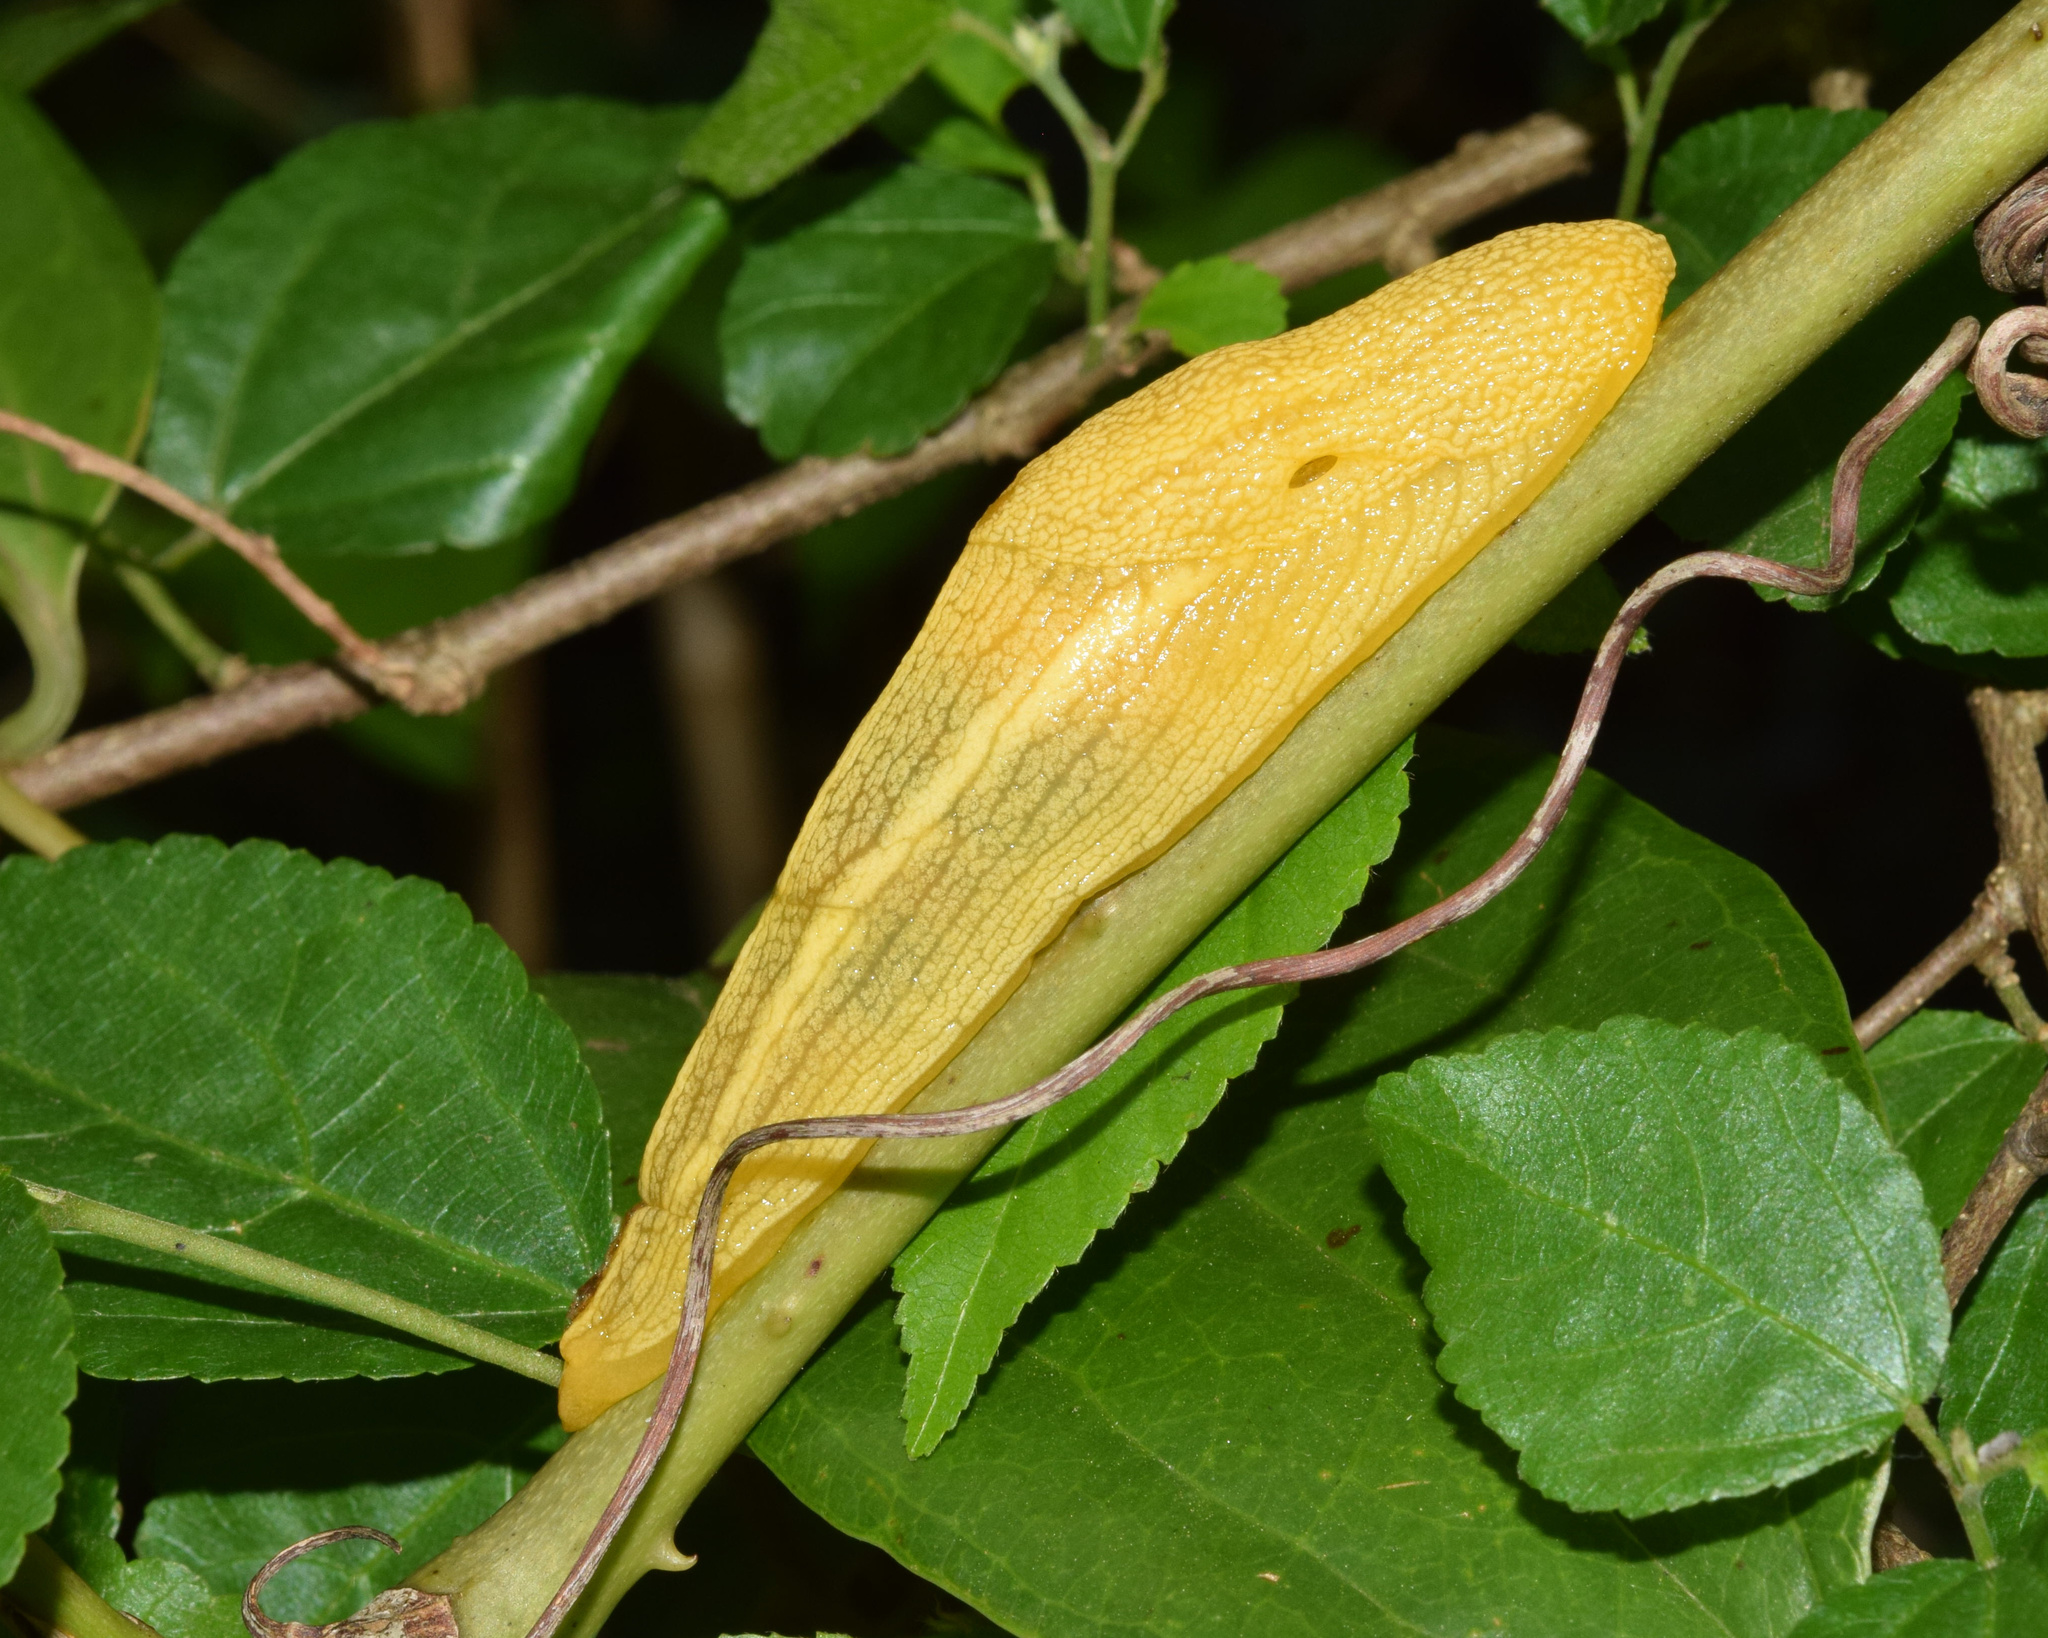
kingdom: Animalia
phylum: Mollusca
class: Gastropoda
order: Stylommatophora
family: Urocyclidae
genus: Elisolimax
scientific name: Elisolimax flavescens
